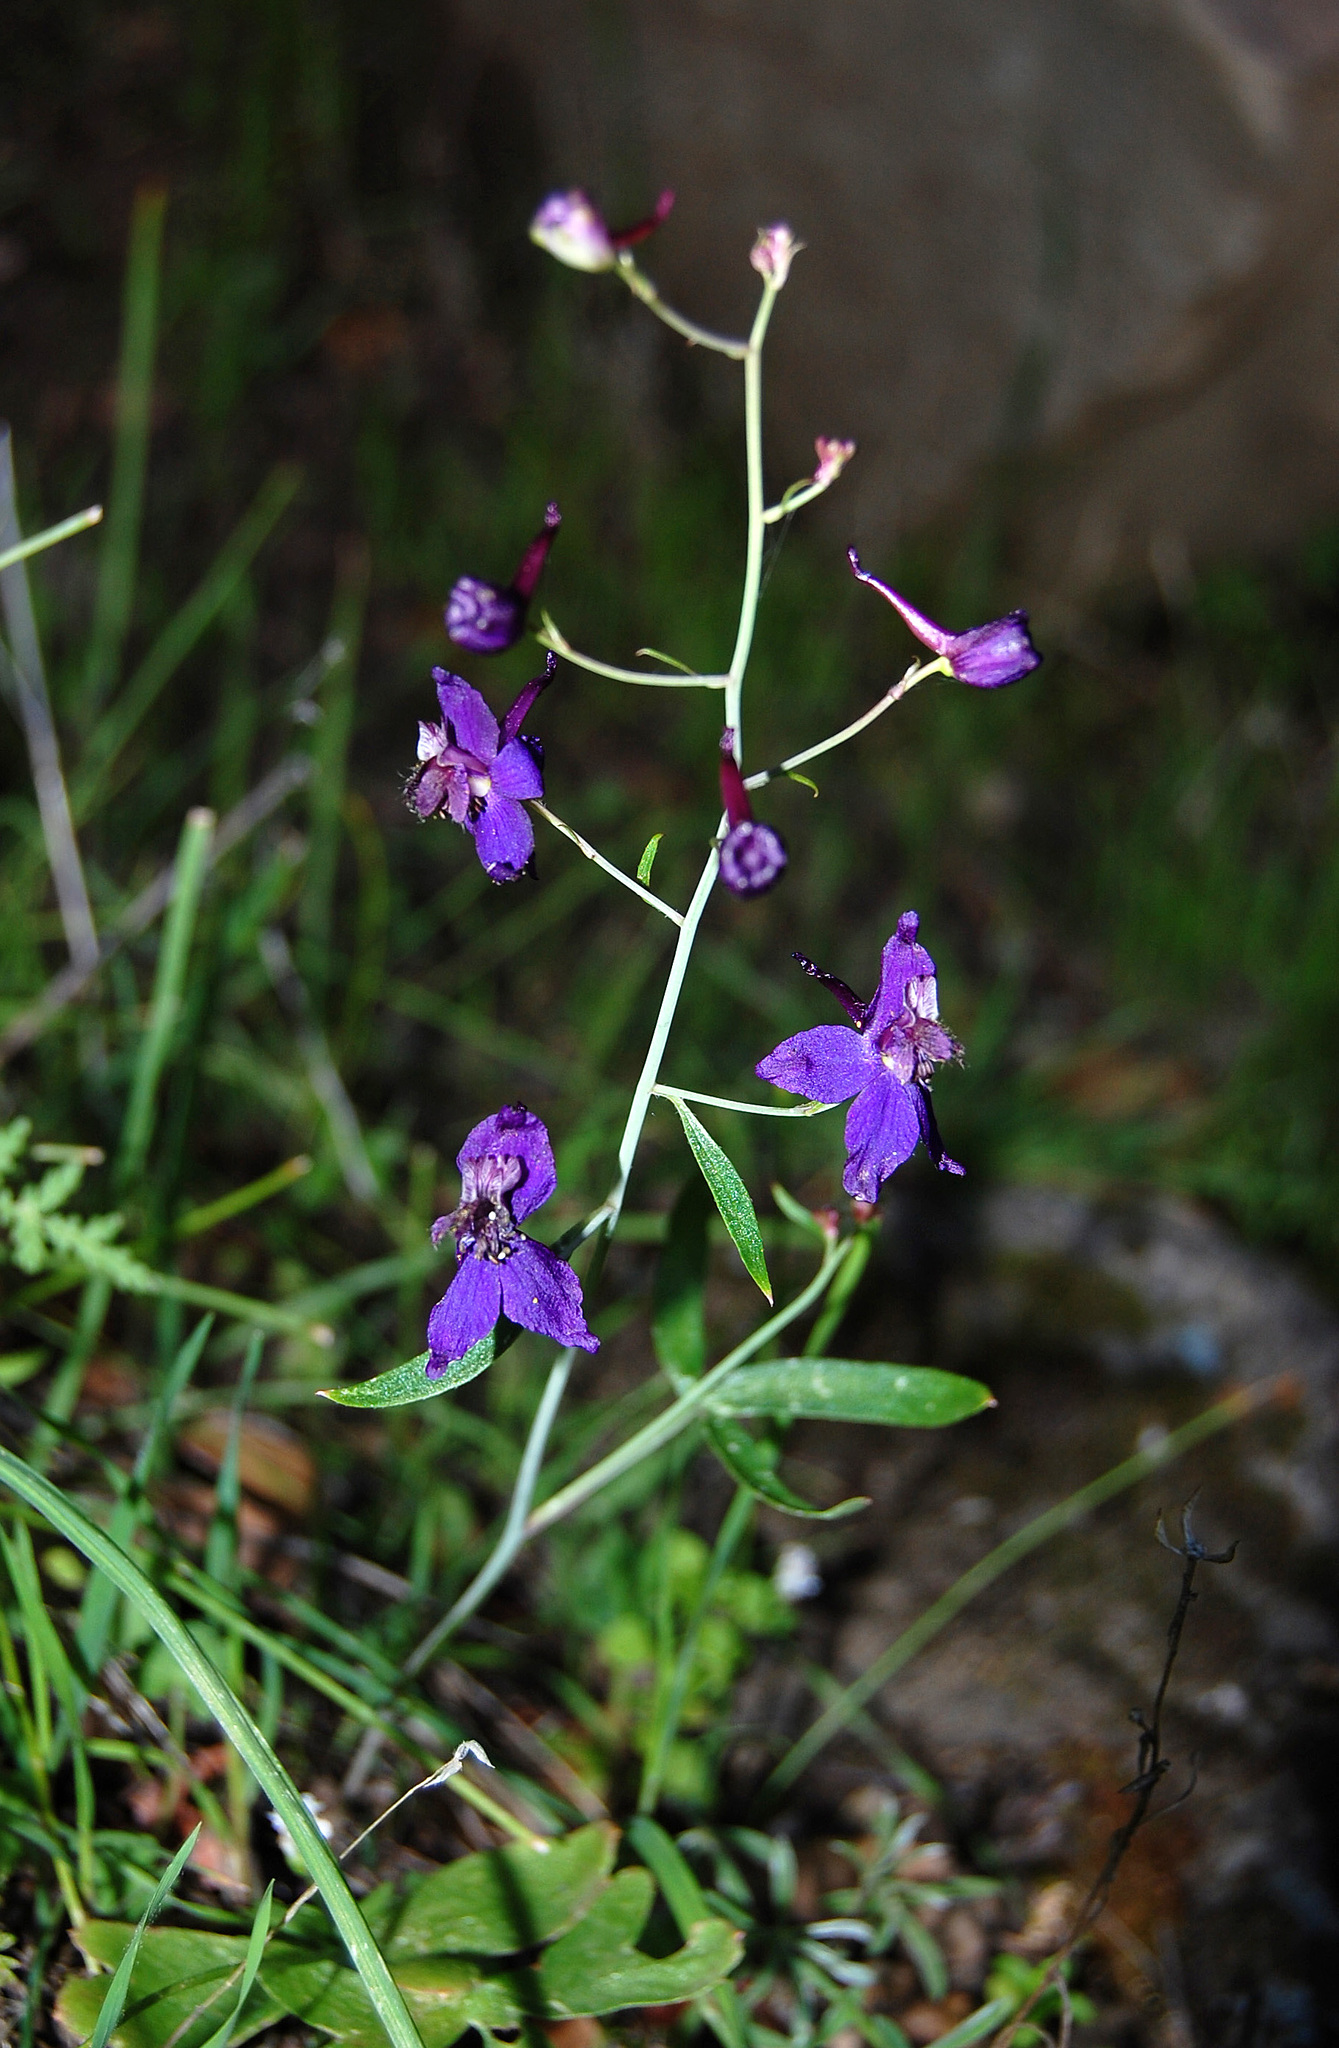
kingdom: Plantae
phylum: Tracheophyta
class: Magnoliopsida
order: Ranunculales
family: Ranunculaceae
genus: Delphinium
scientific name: Delphinium patens
